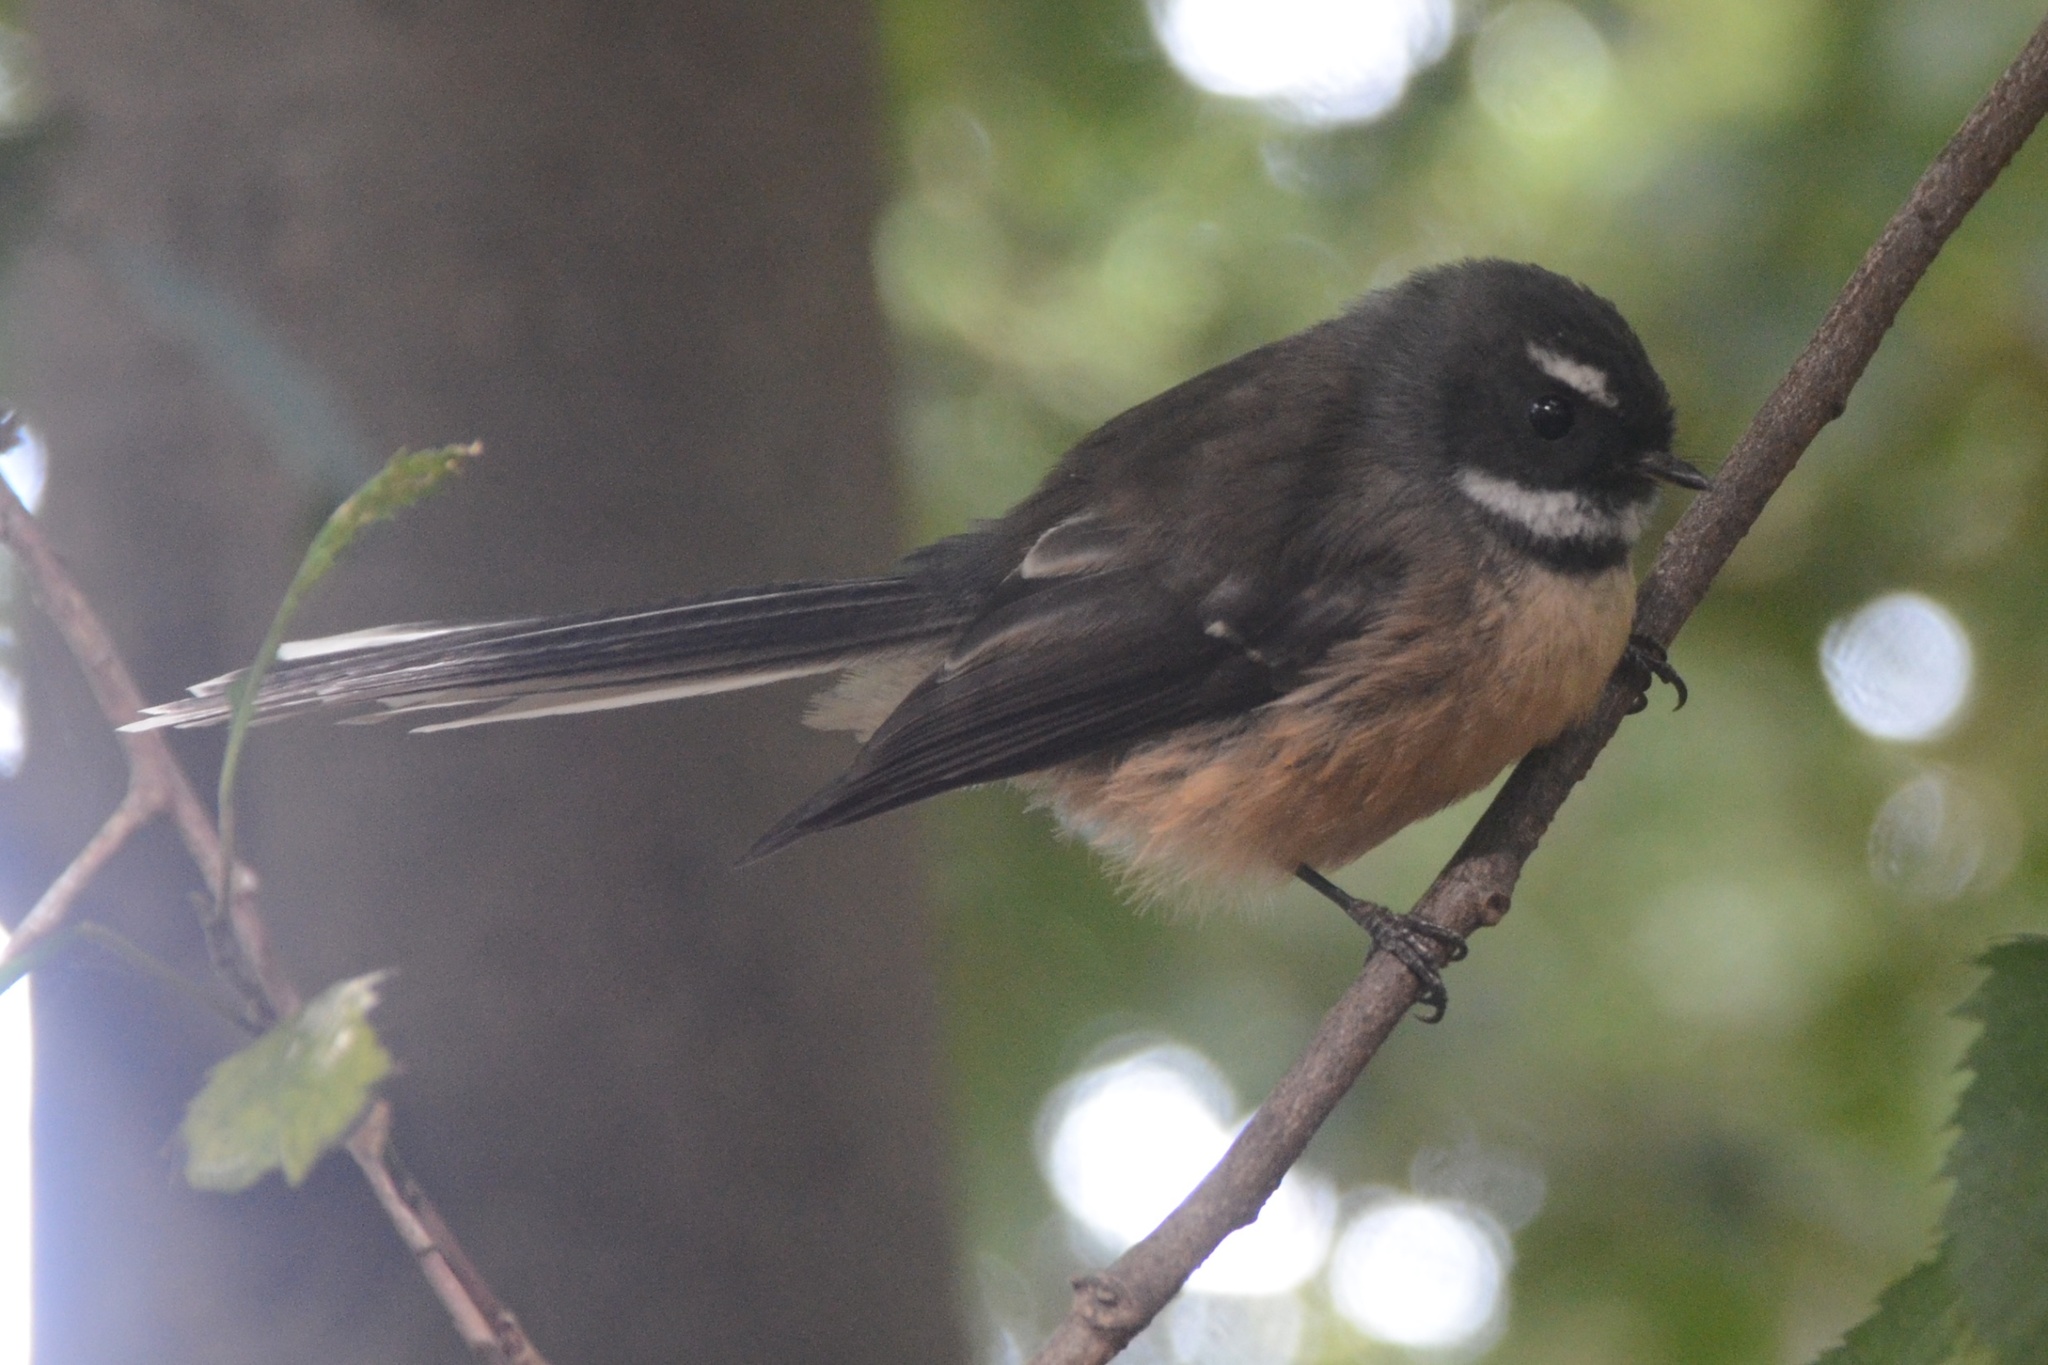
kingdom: Animalia
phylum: Chordata
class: Aves
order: Passeriformes
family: Rhipiduridae
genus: Rhipidura
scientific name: Rhipidura fuliginosa
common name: New zealand fantail
